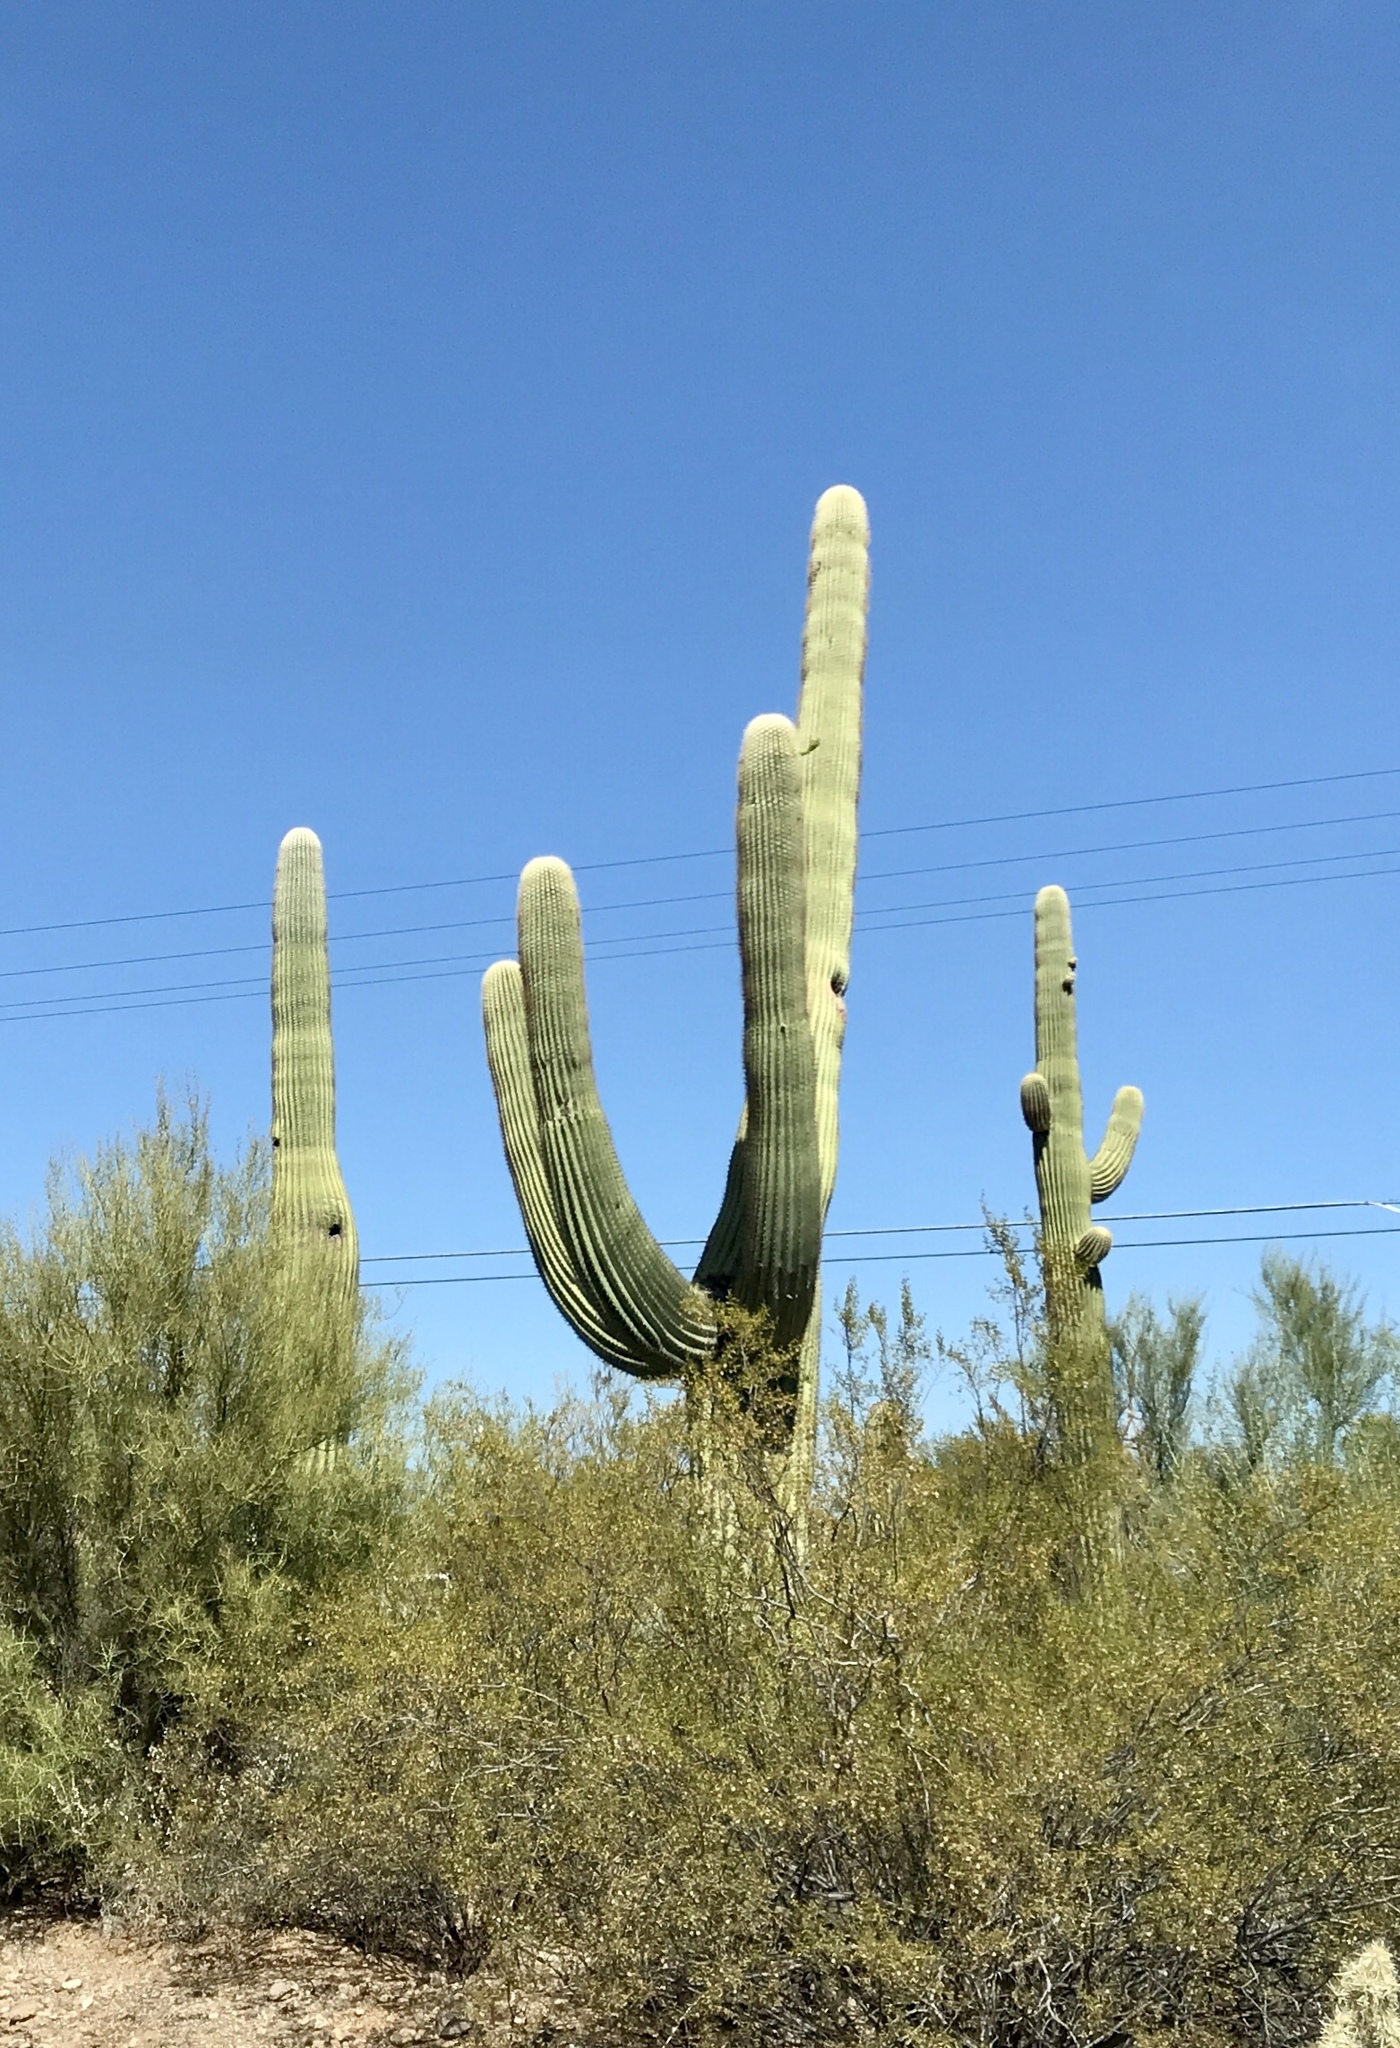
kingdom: Plantae
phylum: Tracheophyta
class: Magnoliopsida
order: Caryophyllales
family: Cactaceae
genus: Carnegiea
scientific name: Carnegiea gigantea
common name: Saguaro
